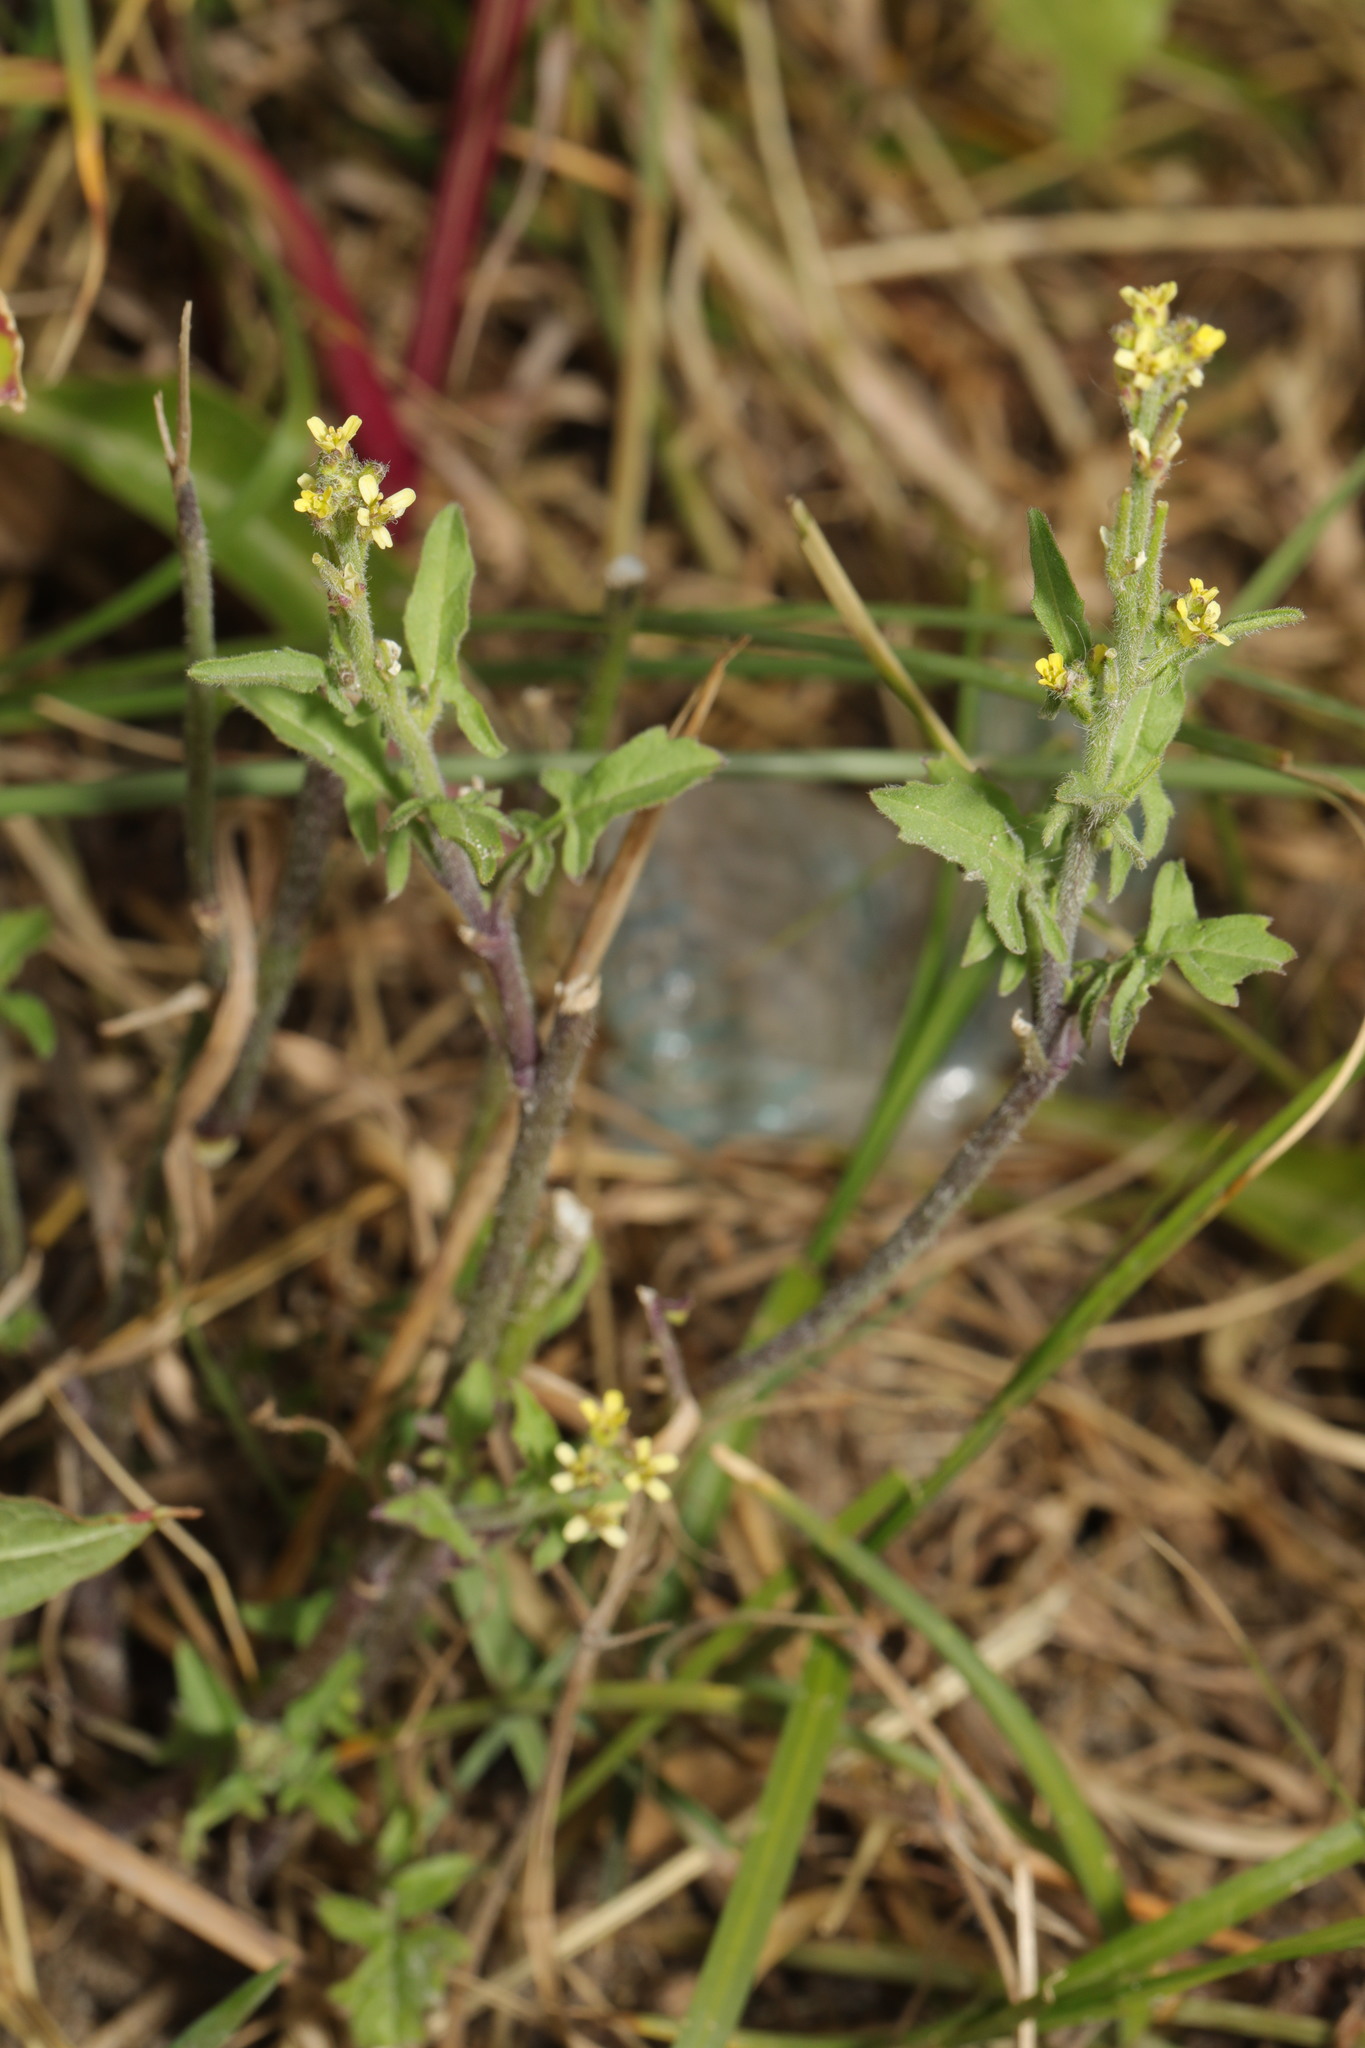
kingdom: Plantae
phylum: Tracheophyta
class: Magnoliopsida
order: Brassicales
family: Brassicaceae
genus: Sisymbrium
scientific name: Sisymbrium officinale
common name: Hedge mustard
